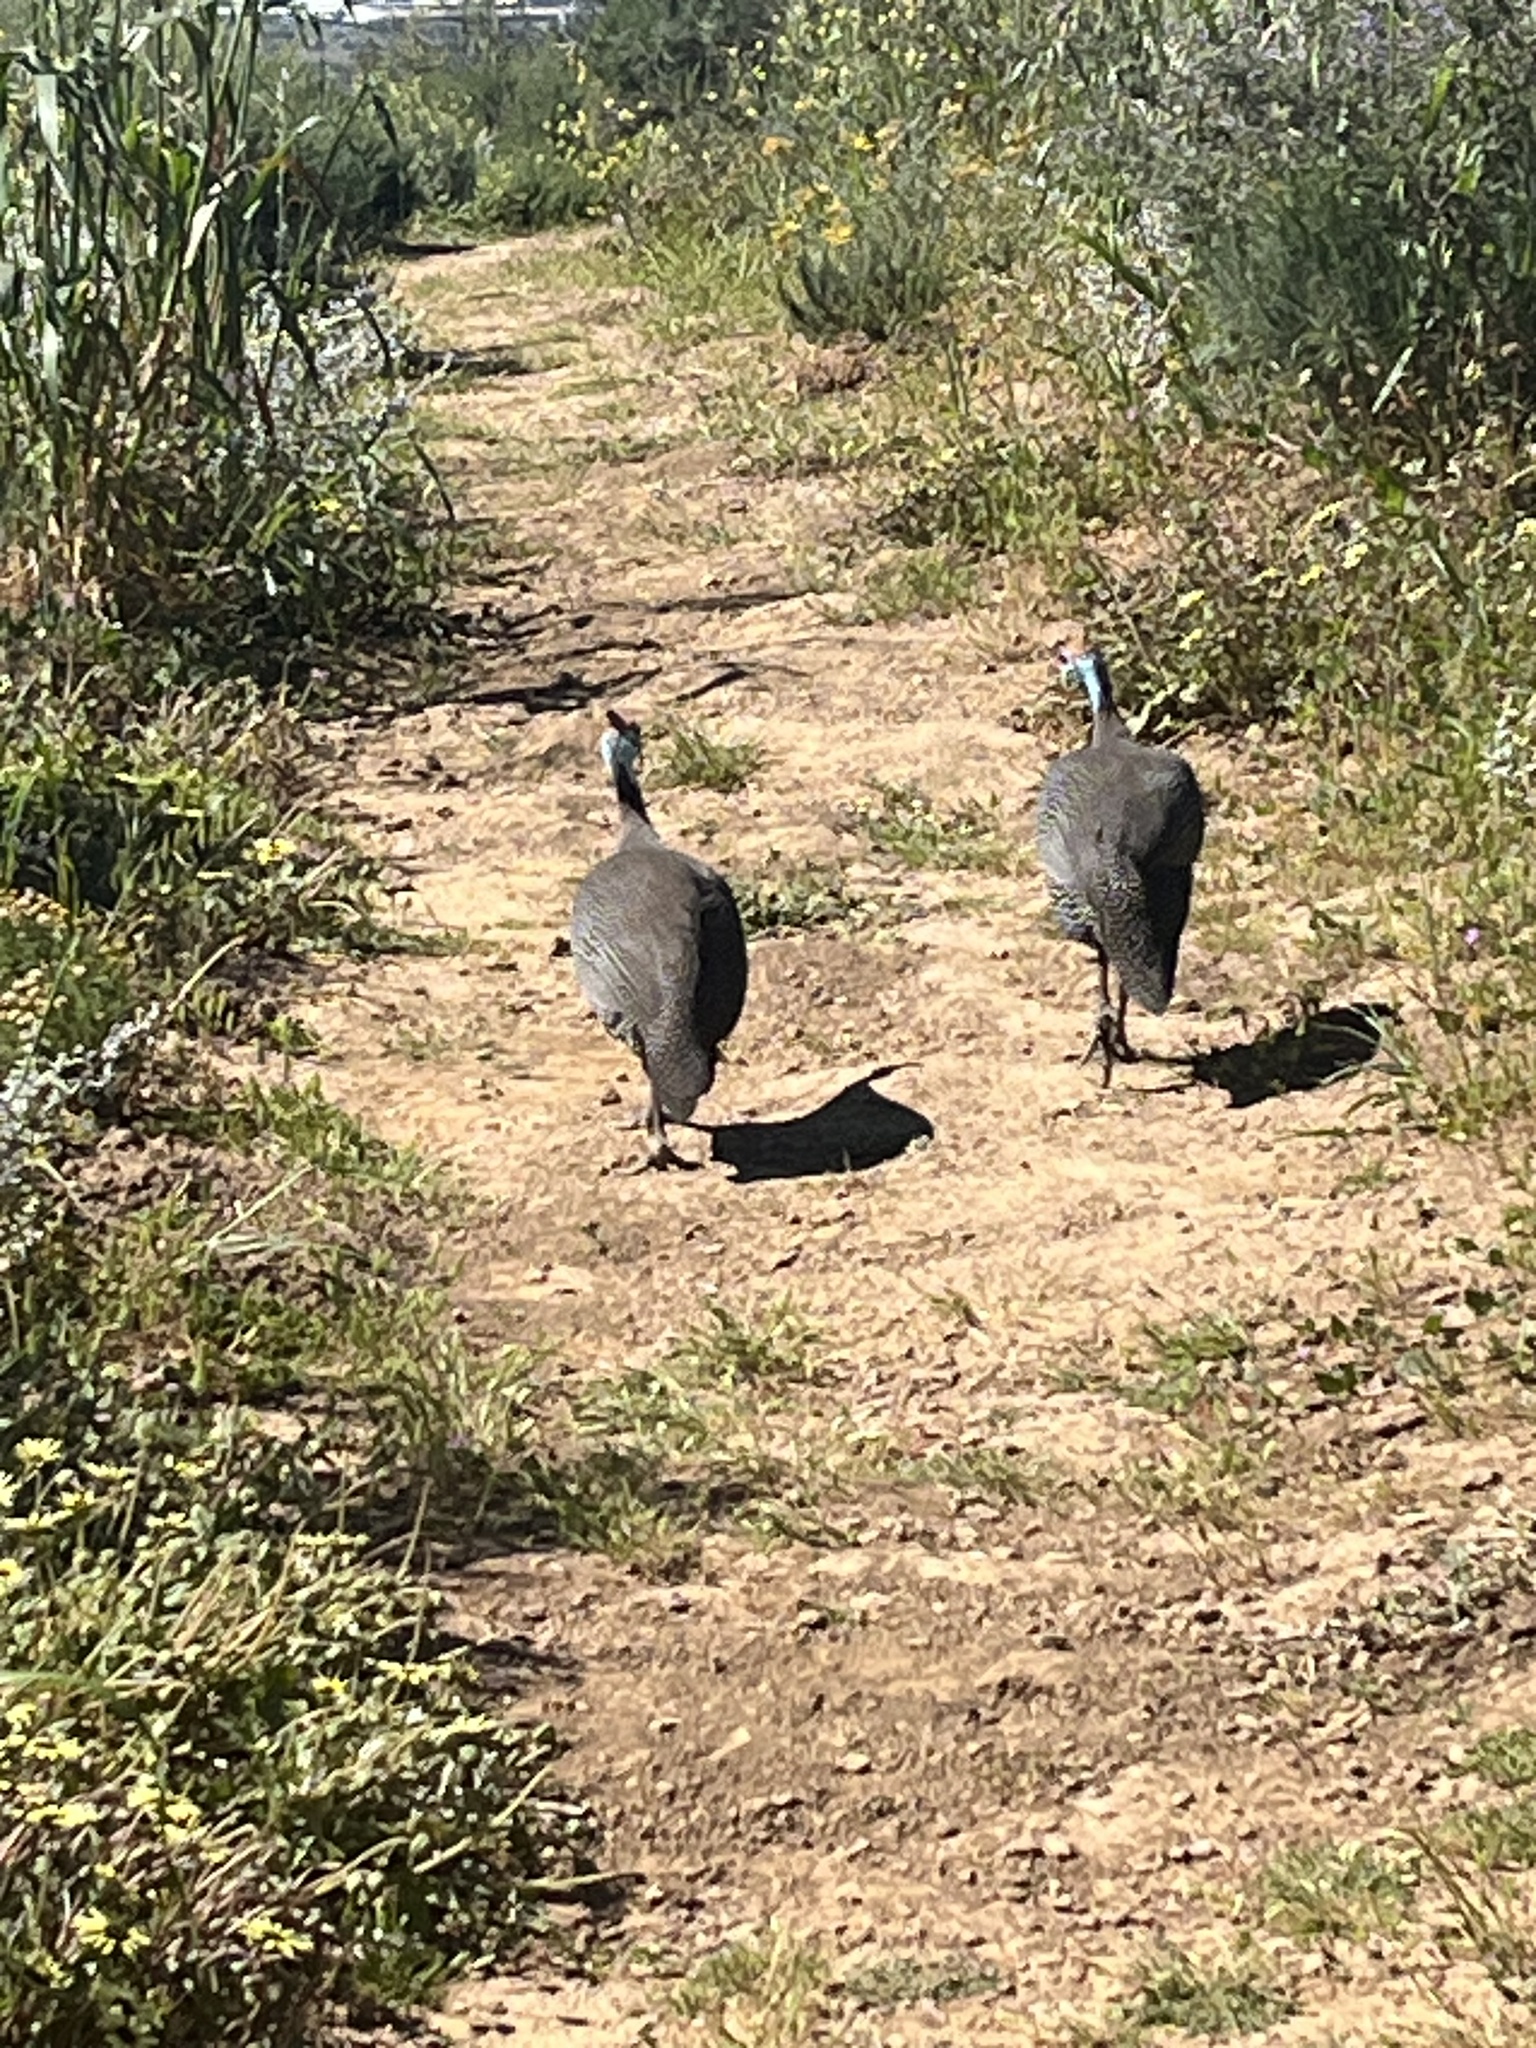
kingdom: Animalia
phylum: Chordata
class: Aves
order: Galliformes
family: Numididae
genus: Numida
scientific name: Numida meleagris
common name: Helmeted guineafowl
